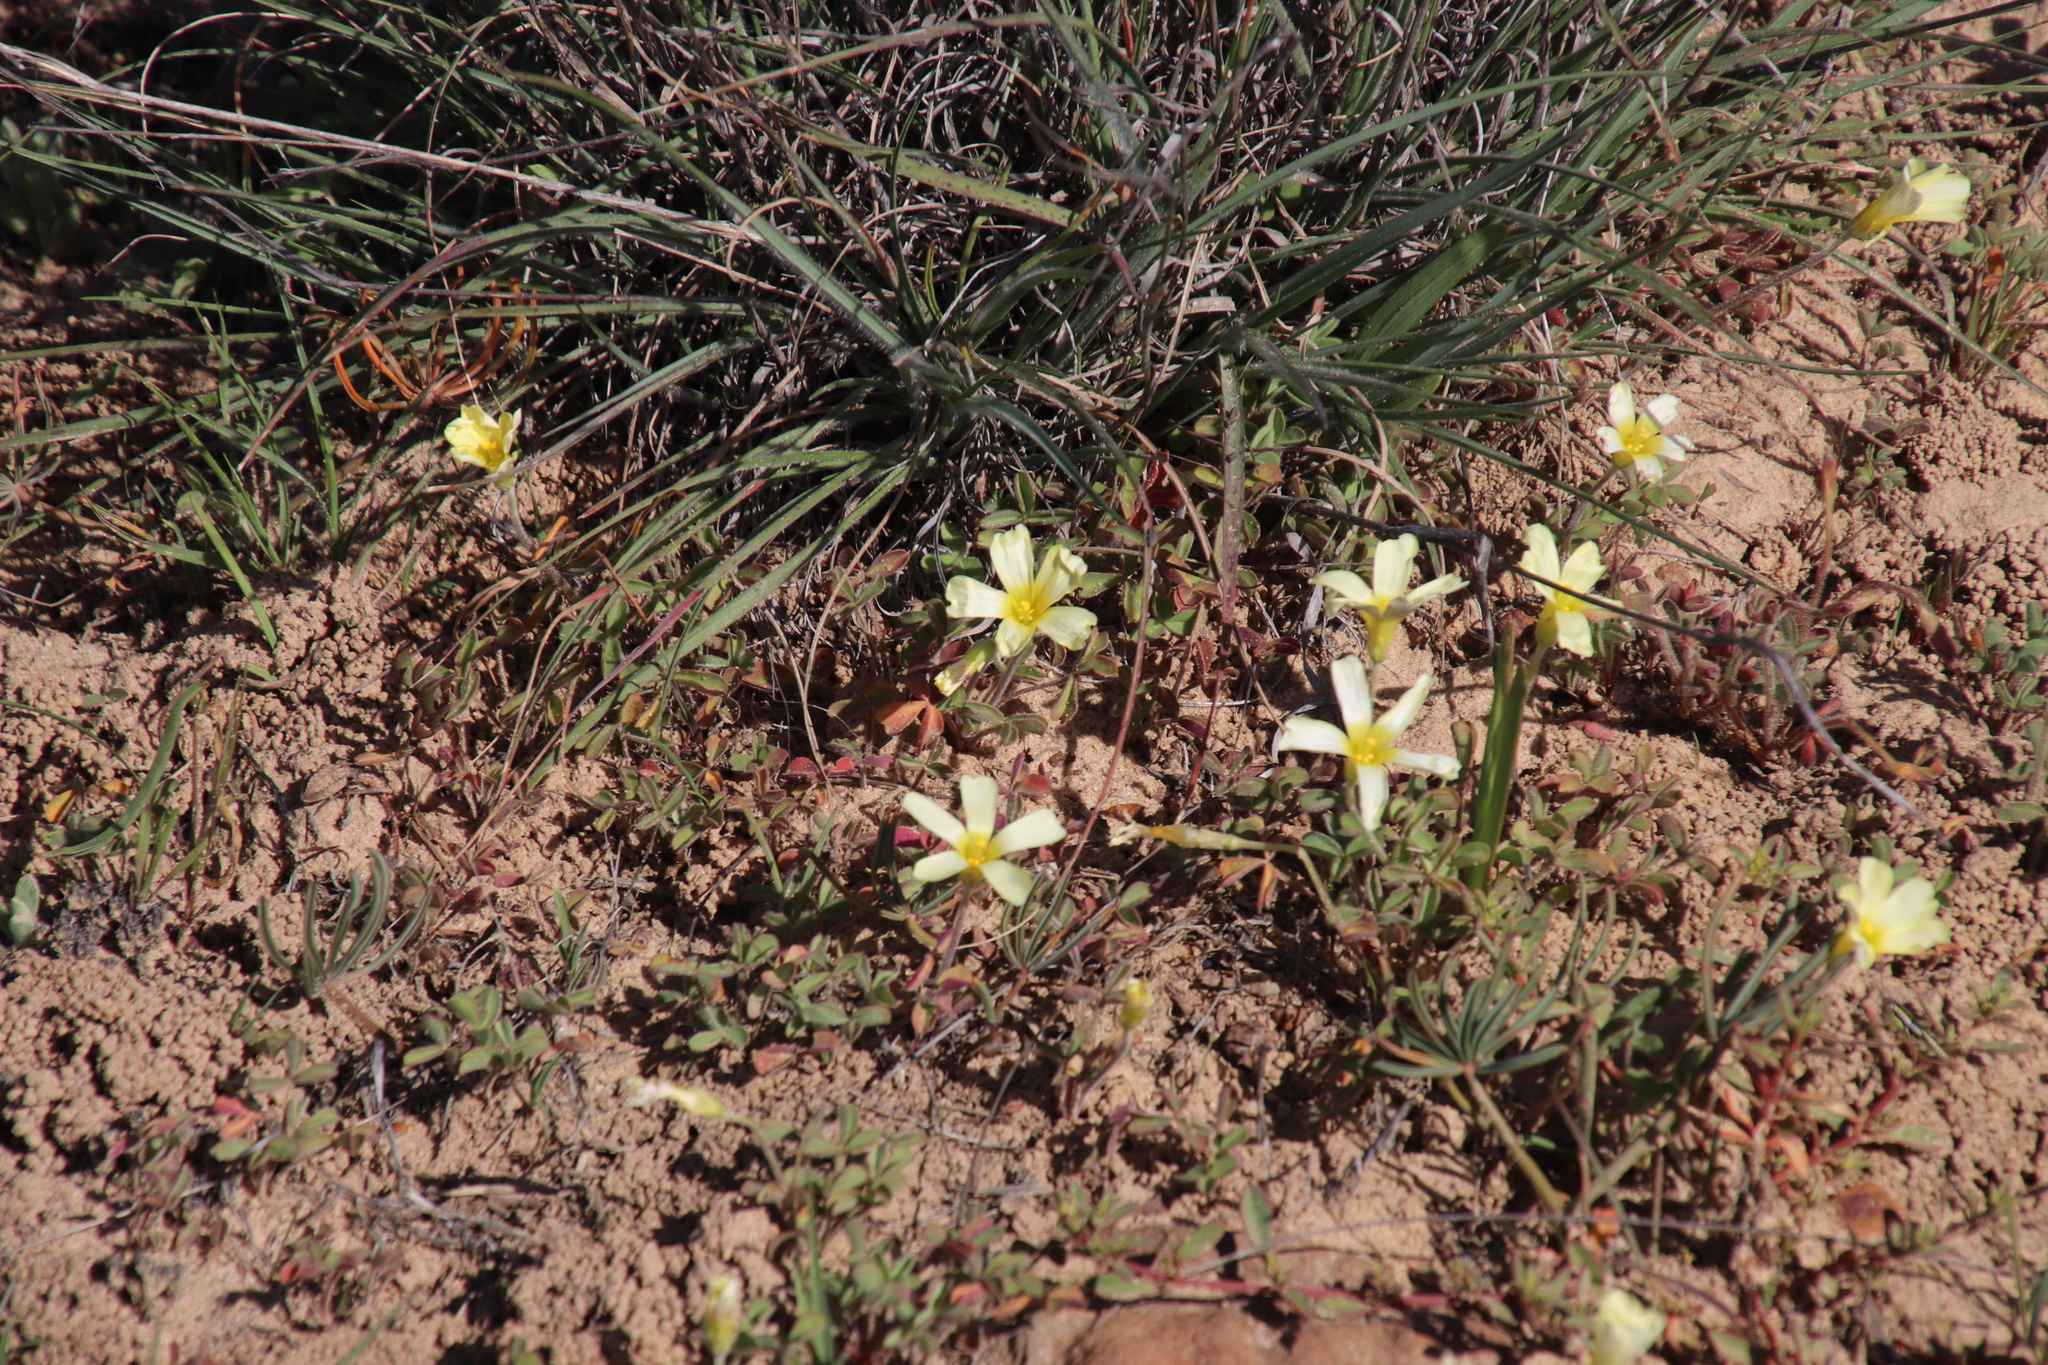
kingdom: Plantae
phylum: Tracheophyta
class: Magnoliopsida
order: Oxalidales
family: Oxalidaceae
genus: Oxalis
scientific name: Oxalis obtusa
